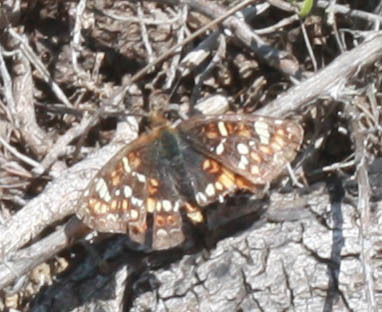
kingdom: Animalia
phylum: Arthropoda
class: Insecta
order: Lepidoptera
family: Nymphalidae
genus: Phyciodes
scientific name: Phyciodes tharos
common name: Pearl crescent
